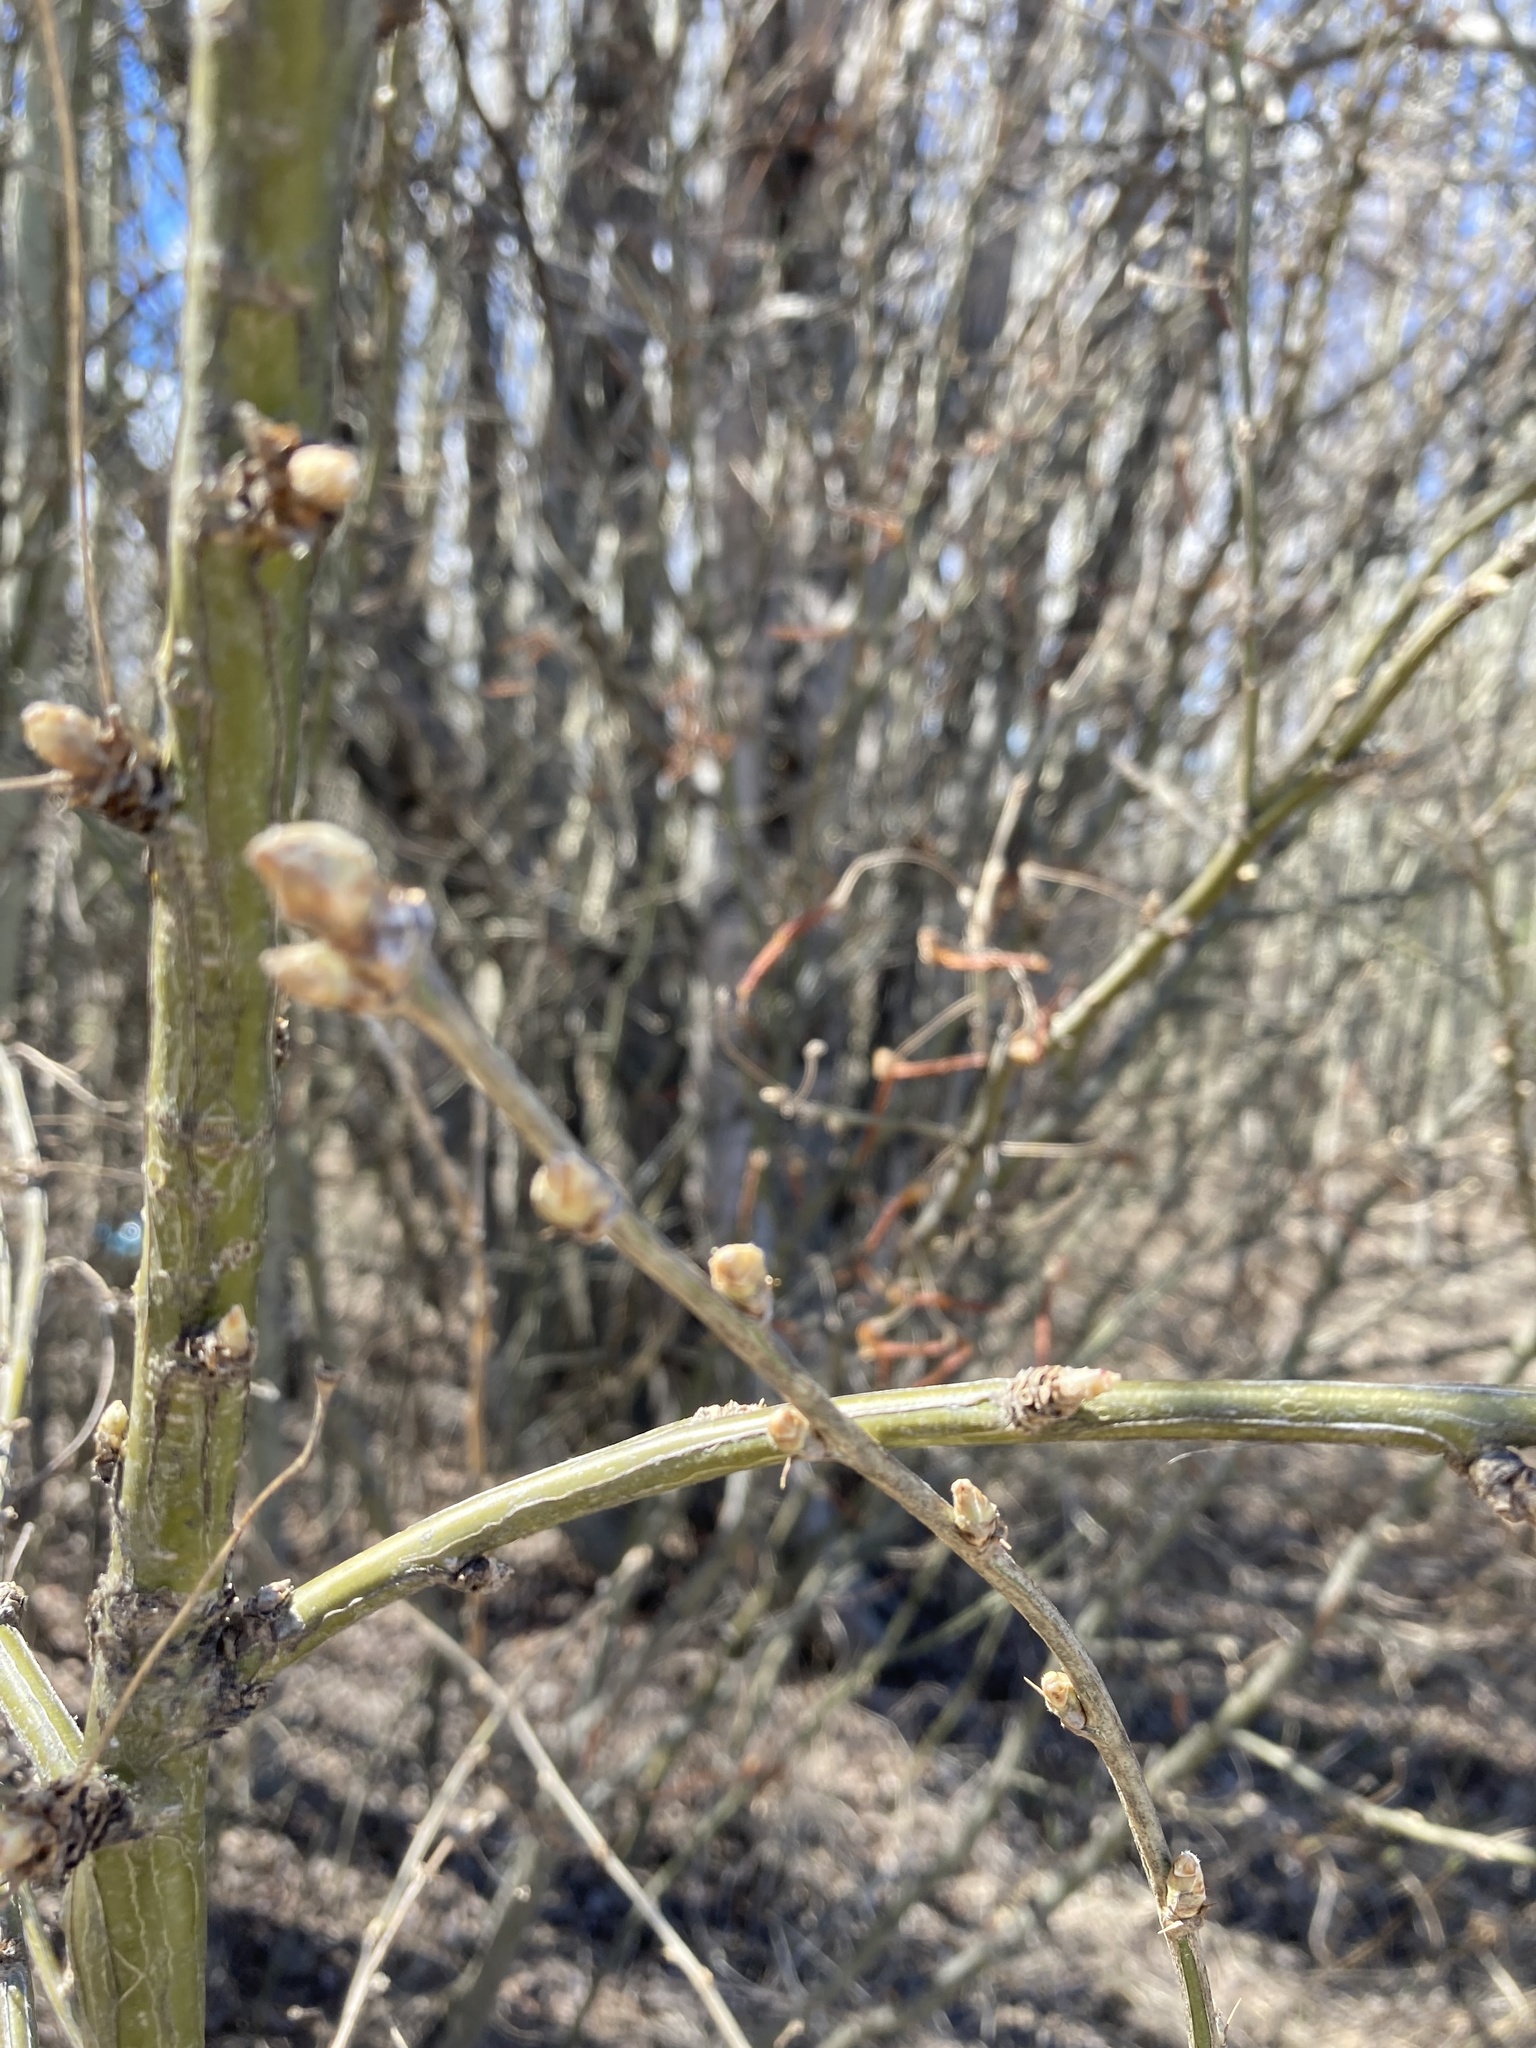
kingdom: Plantae
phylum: Tracheophyta
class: Magnoliopsida
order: Fabales
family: Fabaceae
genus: Caragana
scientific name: Caragana arborescens
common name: Siberian peashrub
